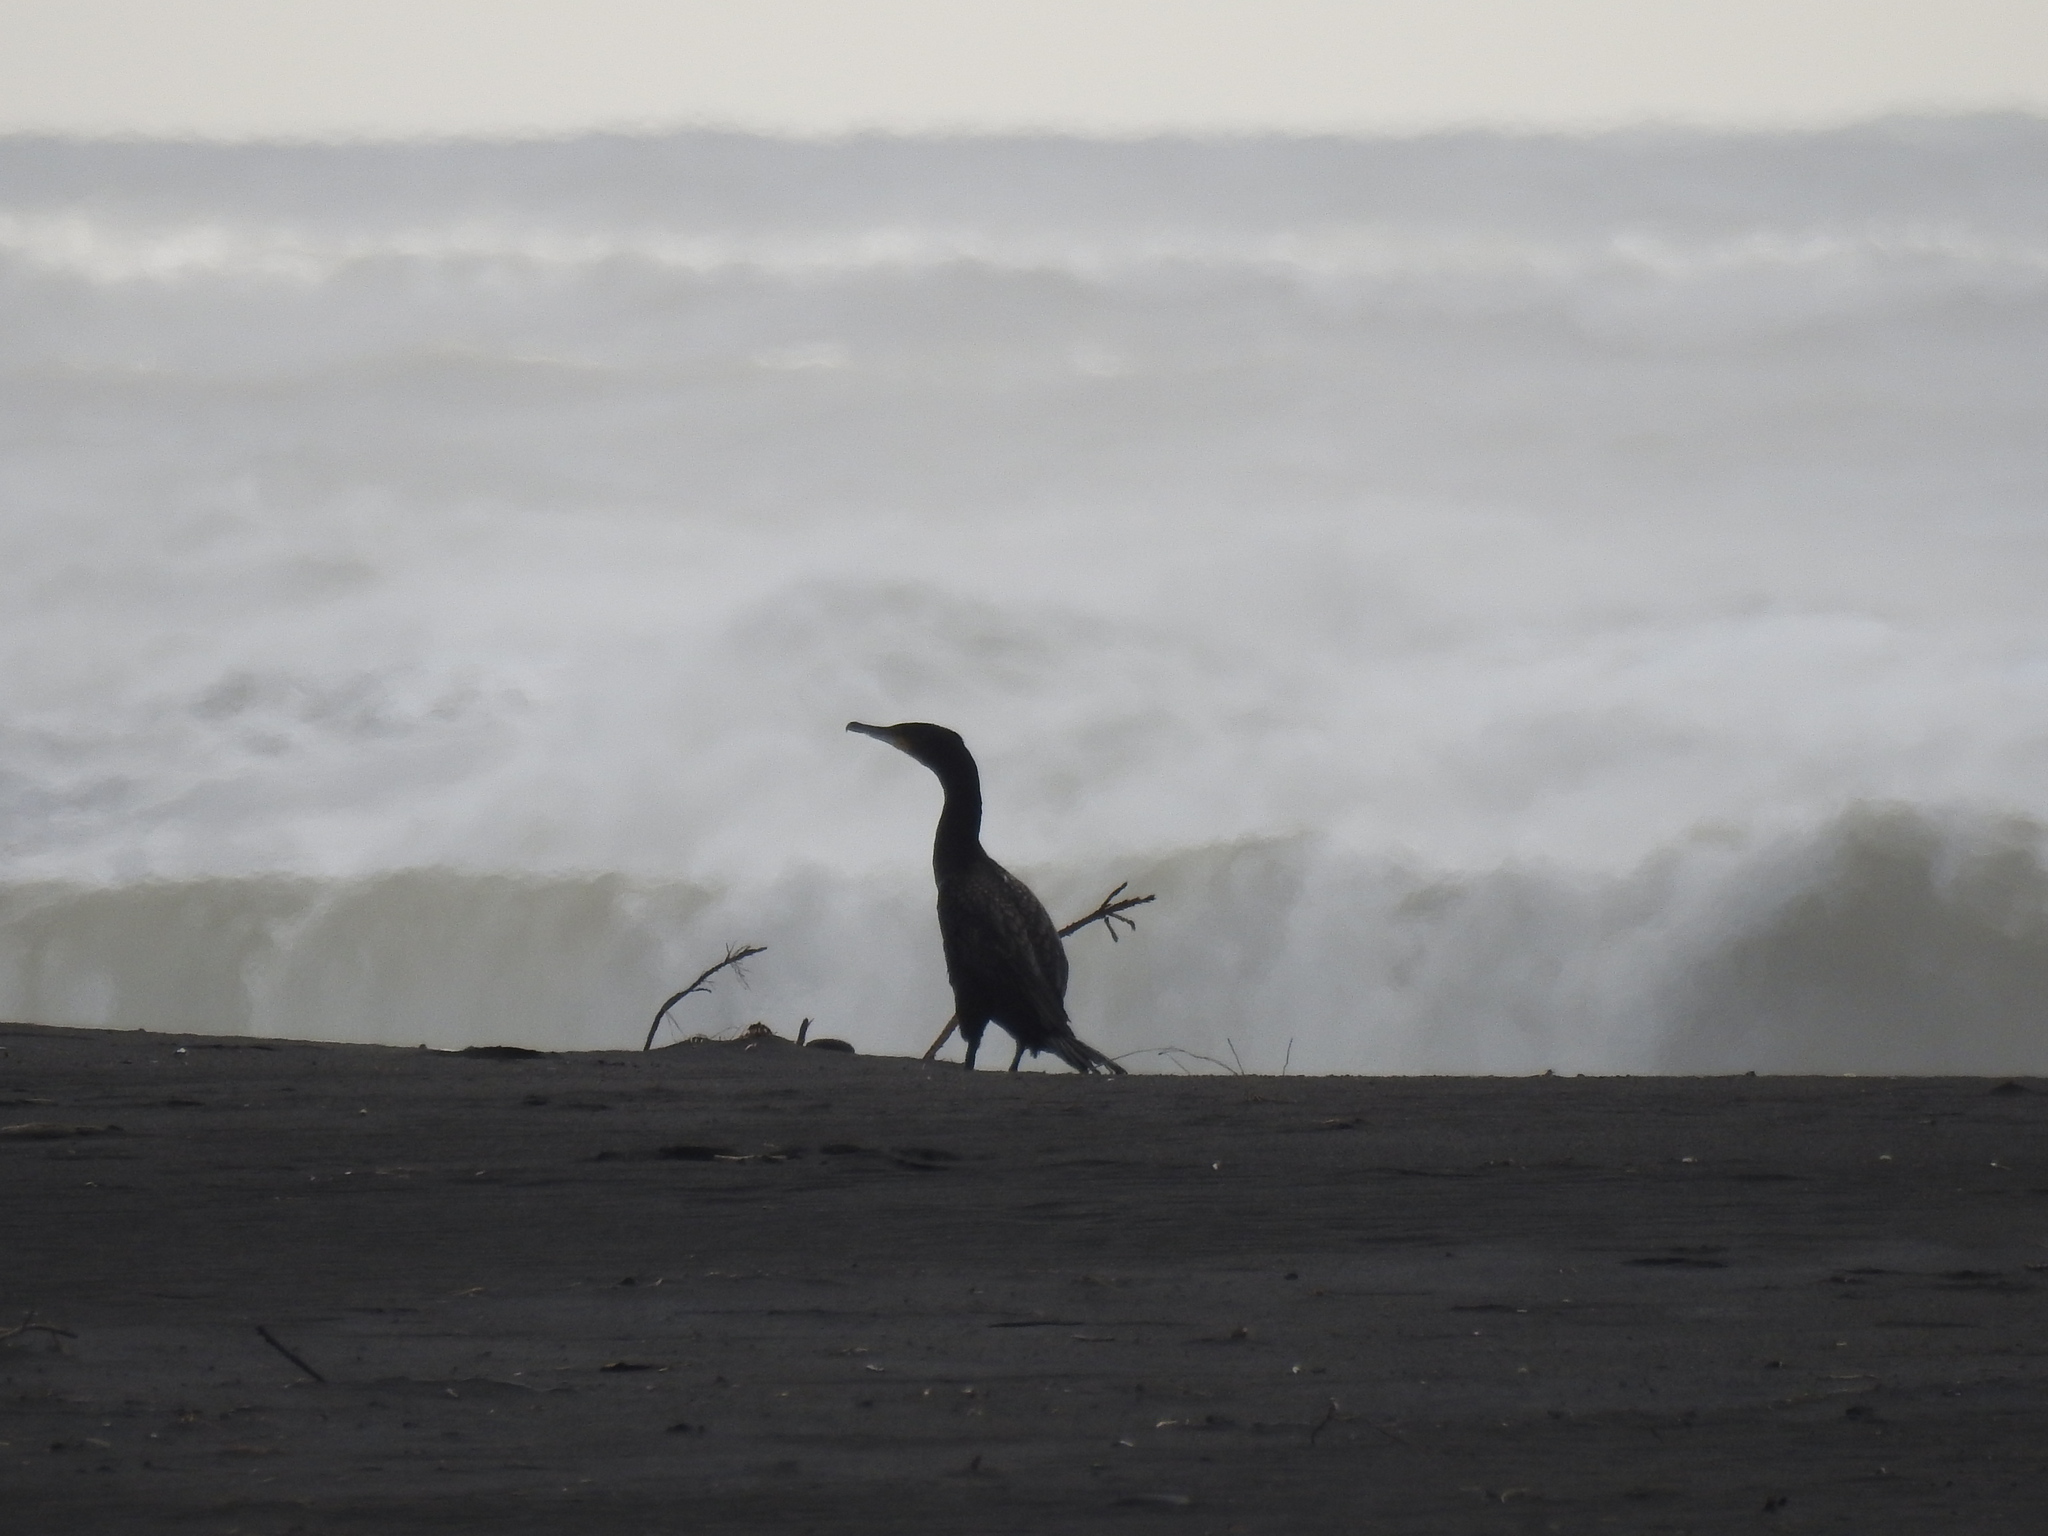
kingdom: Animalia
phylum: Chordata
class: Aves
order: Suliformes
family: Phalacrocoracidae
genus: Phalacrocorax
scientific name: Phalacrocorax carbo
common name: Great cormorant
